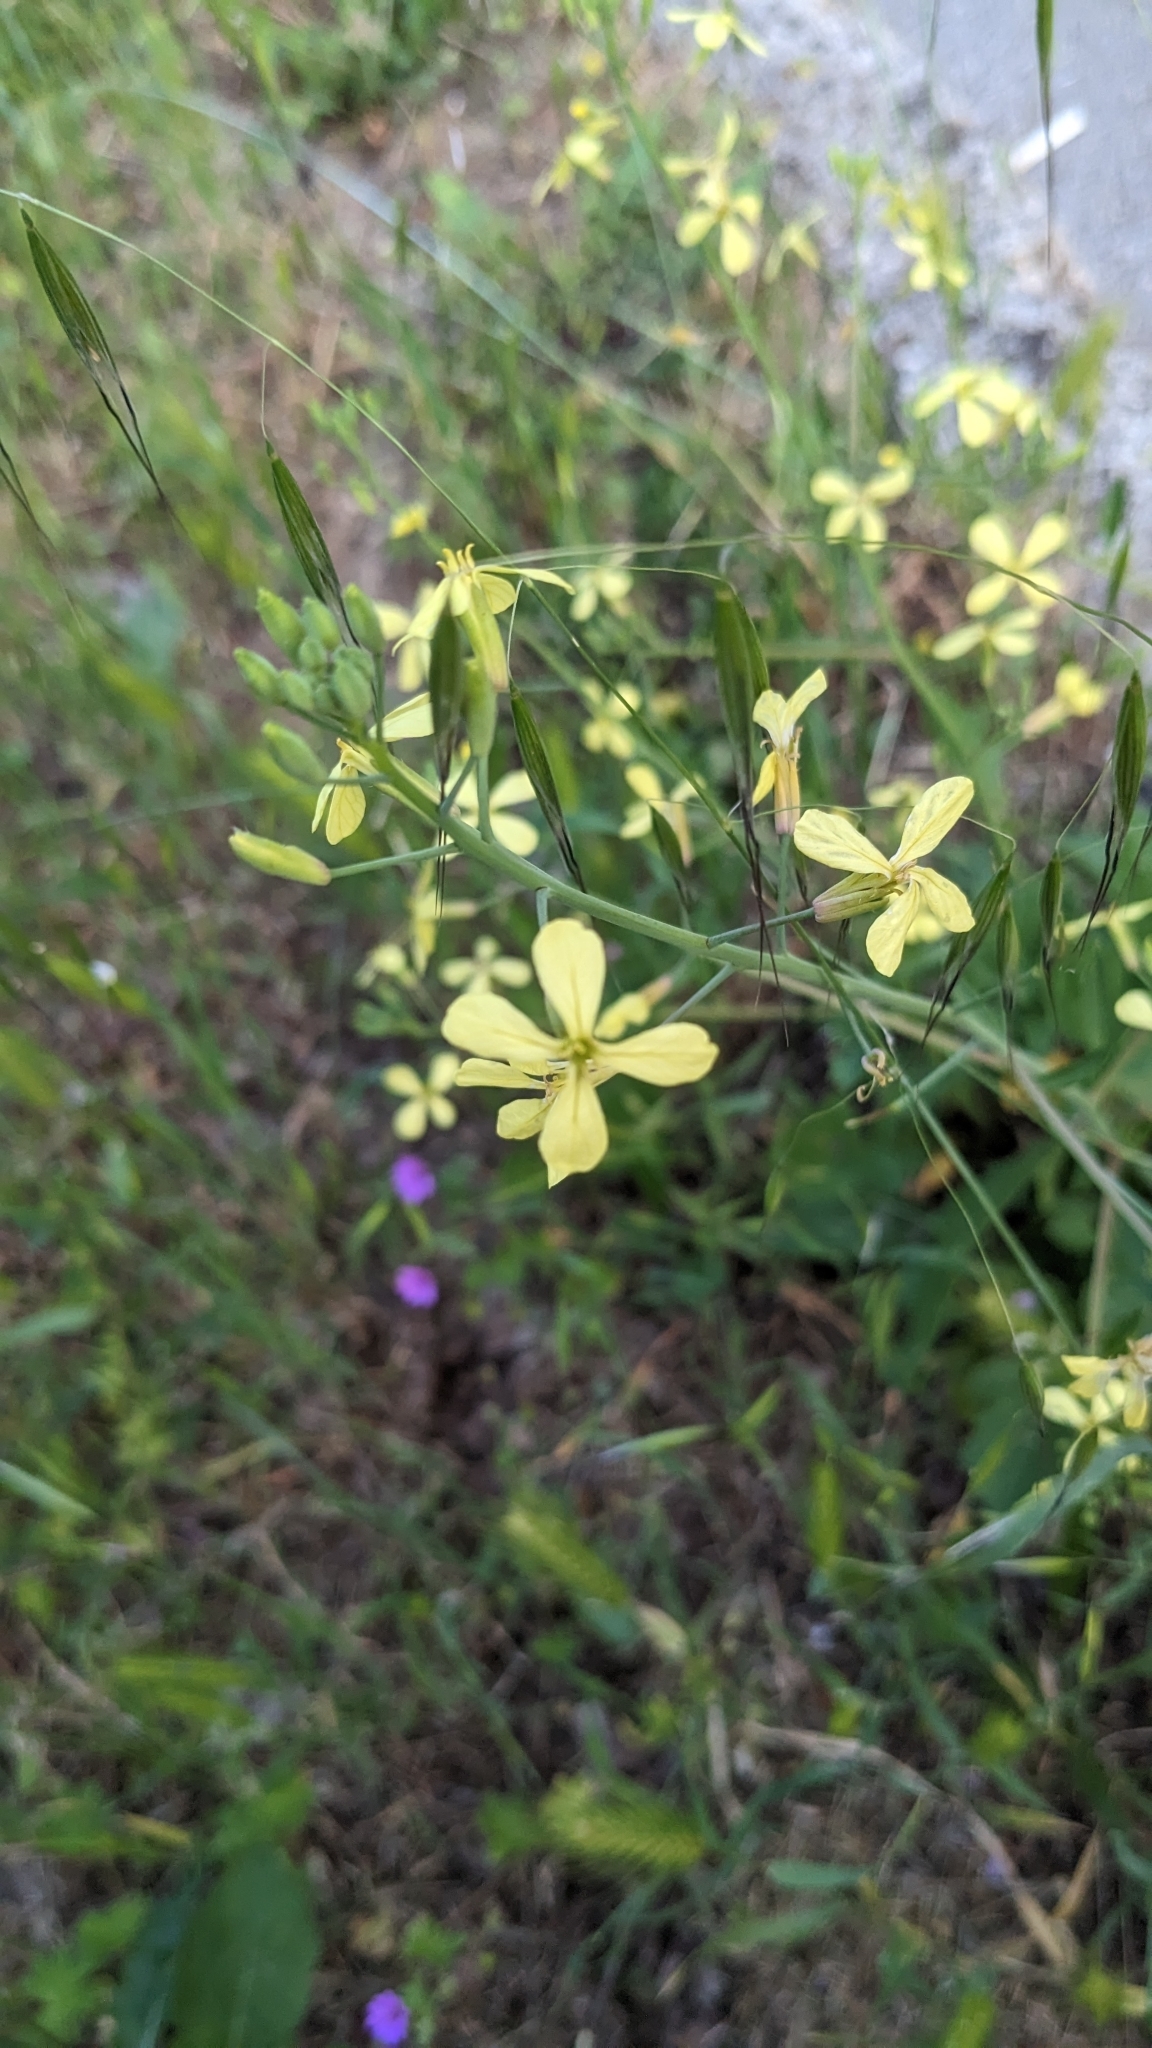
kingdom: Plantae
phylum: Tracheophyta
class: Magnoliopsida
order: Brassicales
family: Brassicaceae
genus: Raphanus
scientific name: Raphanus raphanistrum
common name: Wild radish
